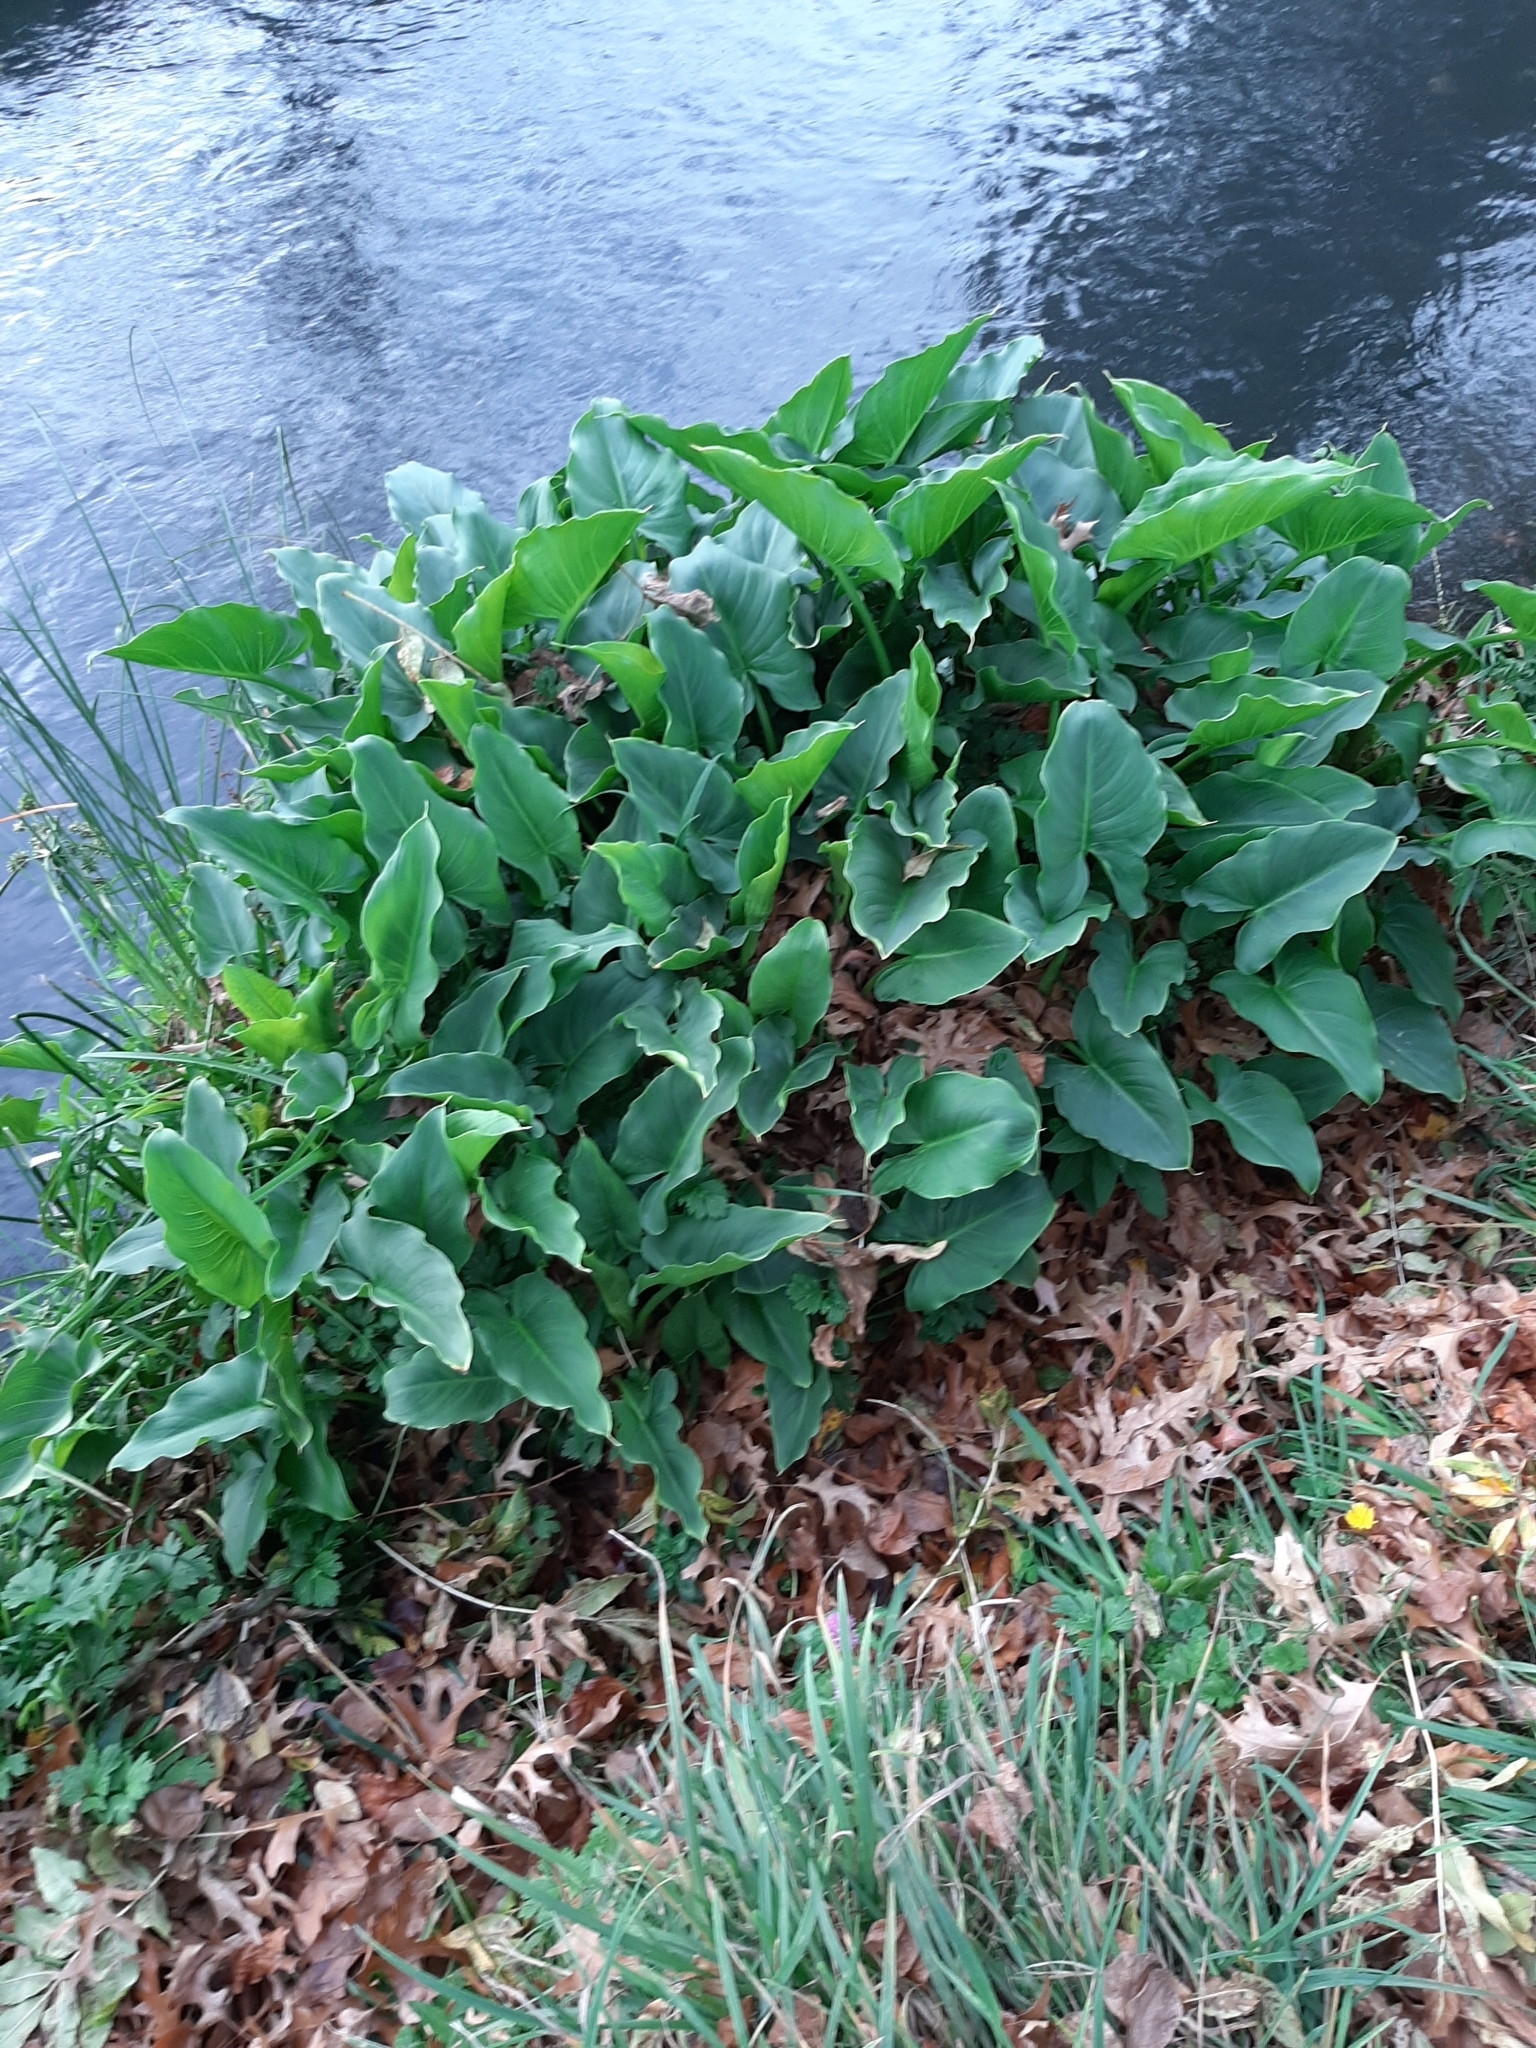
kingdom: Plantae
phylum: Tracheophyta
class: Liliopsida
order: Alismatales
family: Araceae
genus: Zantedeschia
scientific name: Zantedeschia aethiopica
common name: Altar-lily
